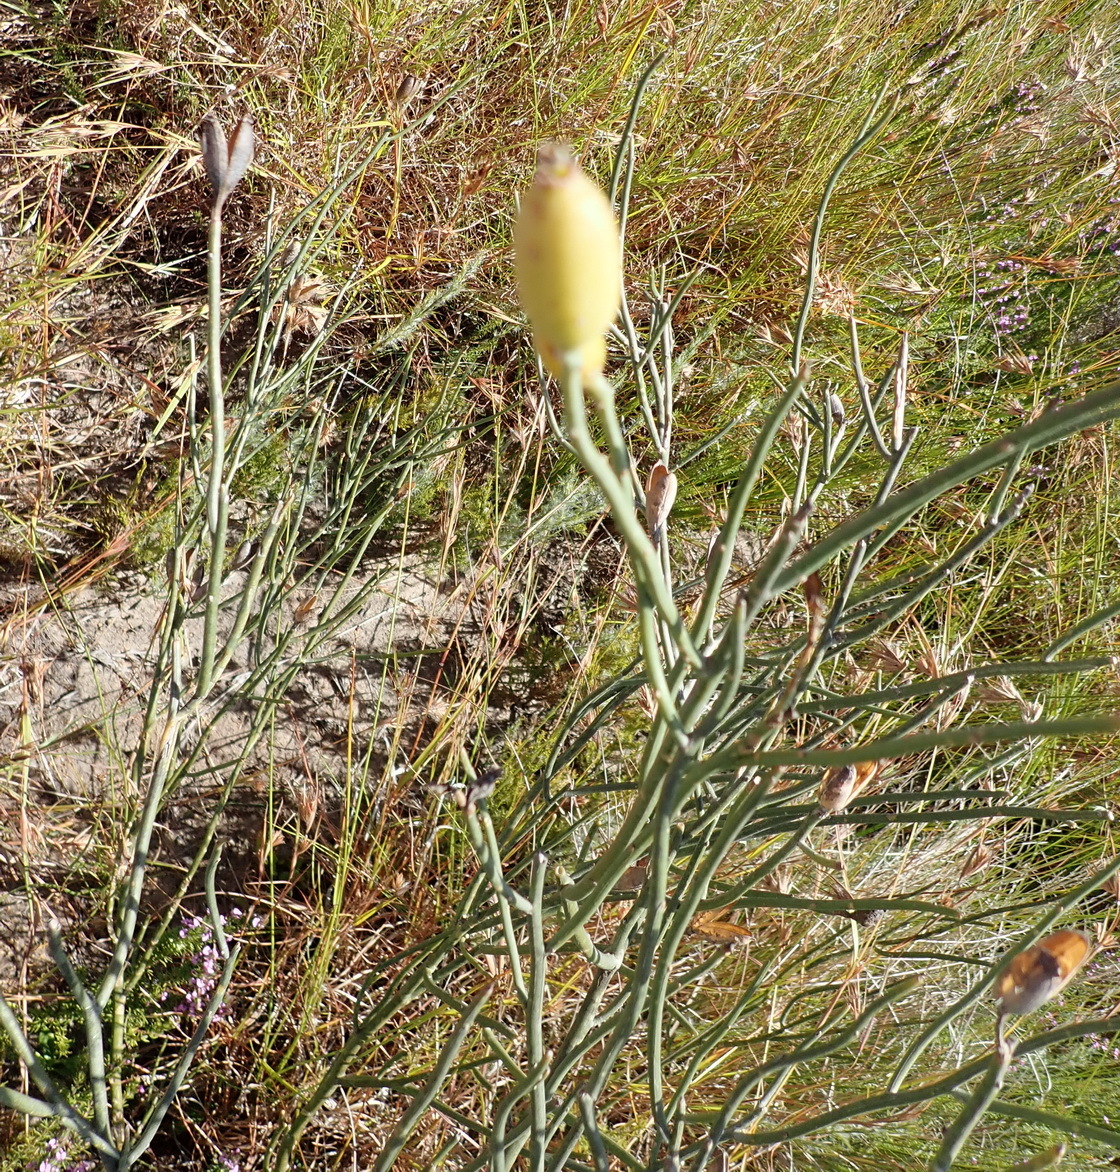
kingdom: Plantae
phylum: Tracheophyta
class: Magnoliopsida
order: Solanales
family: Montiniaceae
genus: Montinia
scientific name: Montinia caryophyllacea
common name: Wild clove-bush
